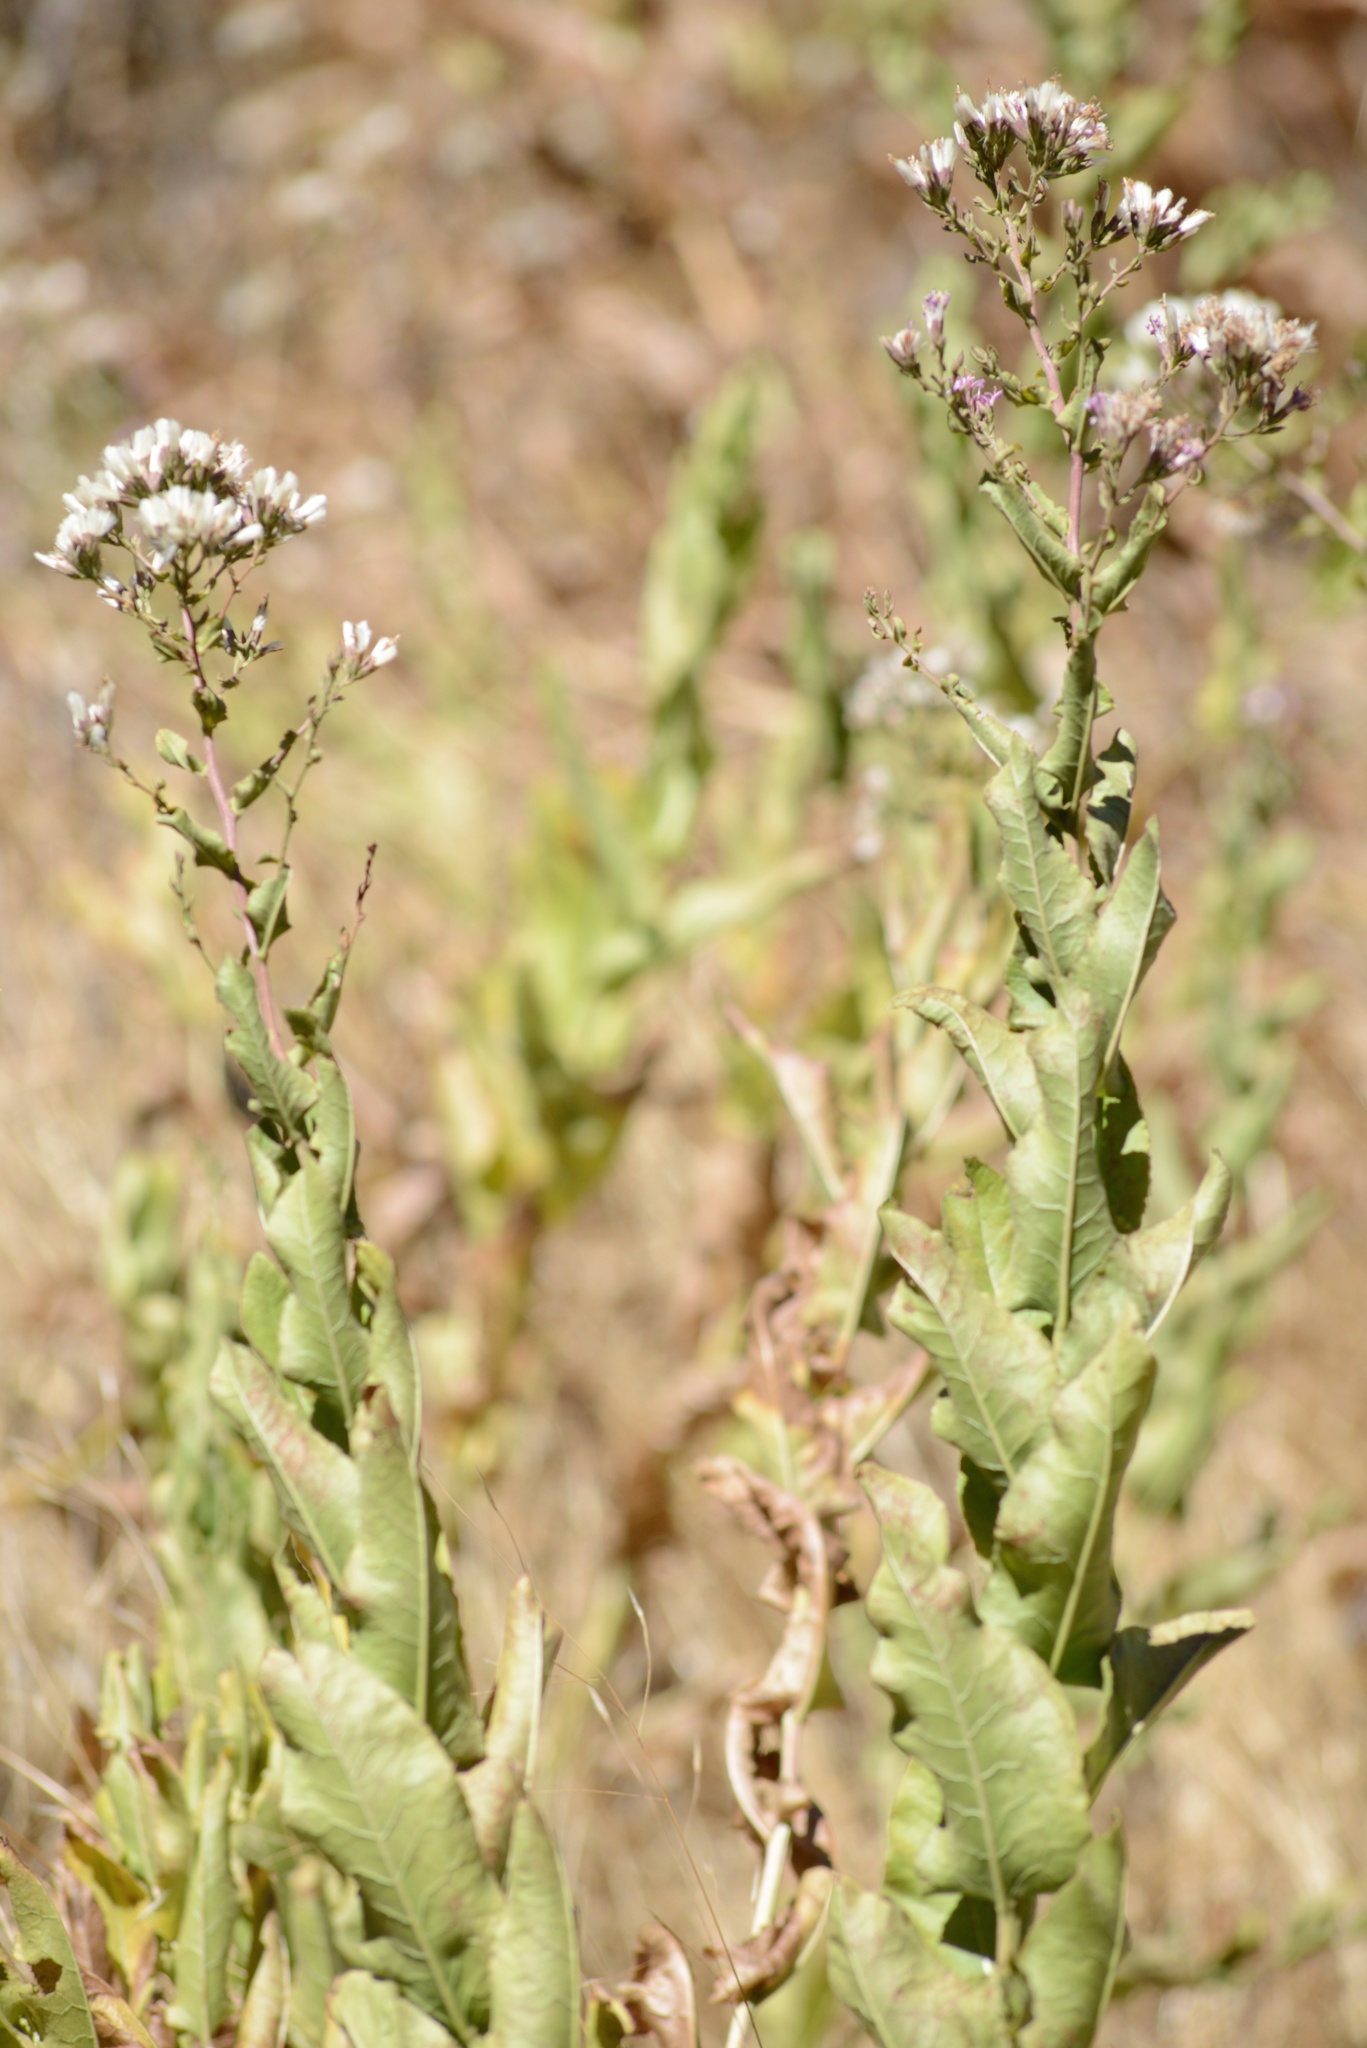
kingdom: Plantae
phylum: Tracheophyta
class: Magnoliopsida
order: Asterales
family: Asteraceae
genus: Acourtia
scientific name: Acourtia microcephala
